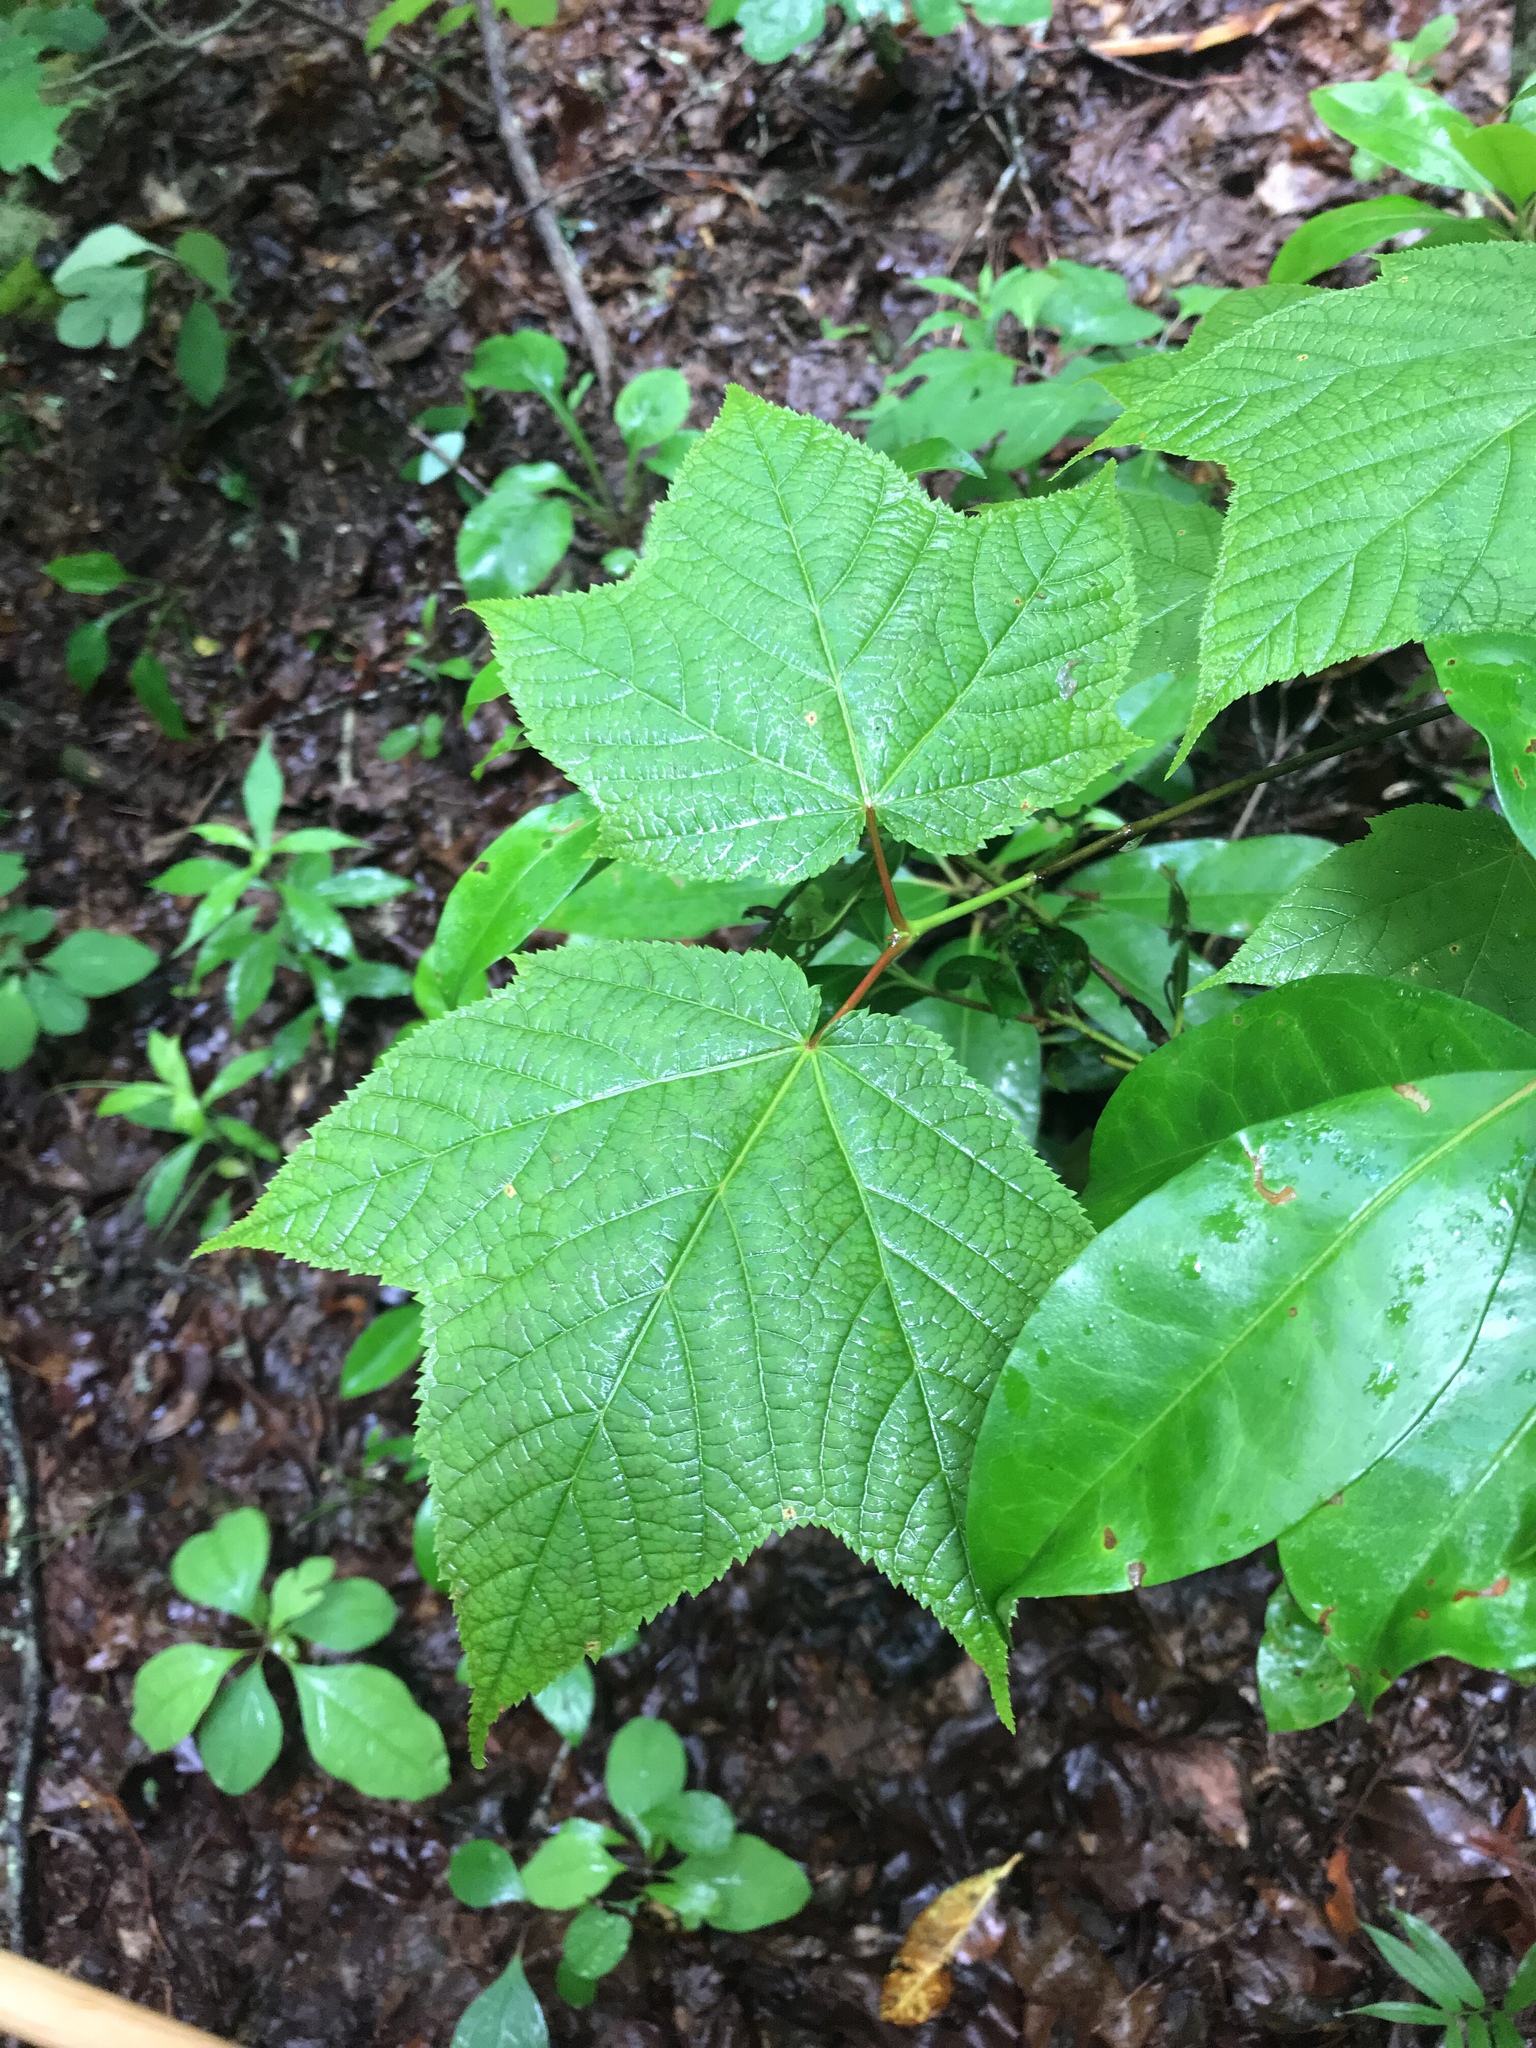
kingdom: Plantae
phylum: Tracheophyta
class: Magnoliopsida
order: Sapindales
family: Sapindaceae
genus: Acer
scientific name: Acer pensylvanicum
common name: Moosewood
